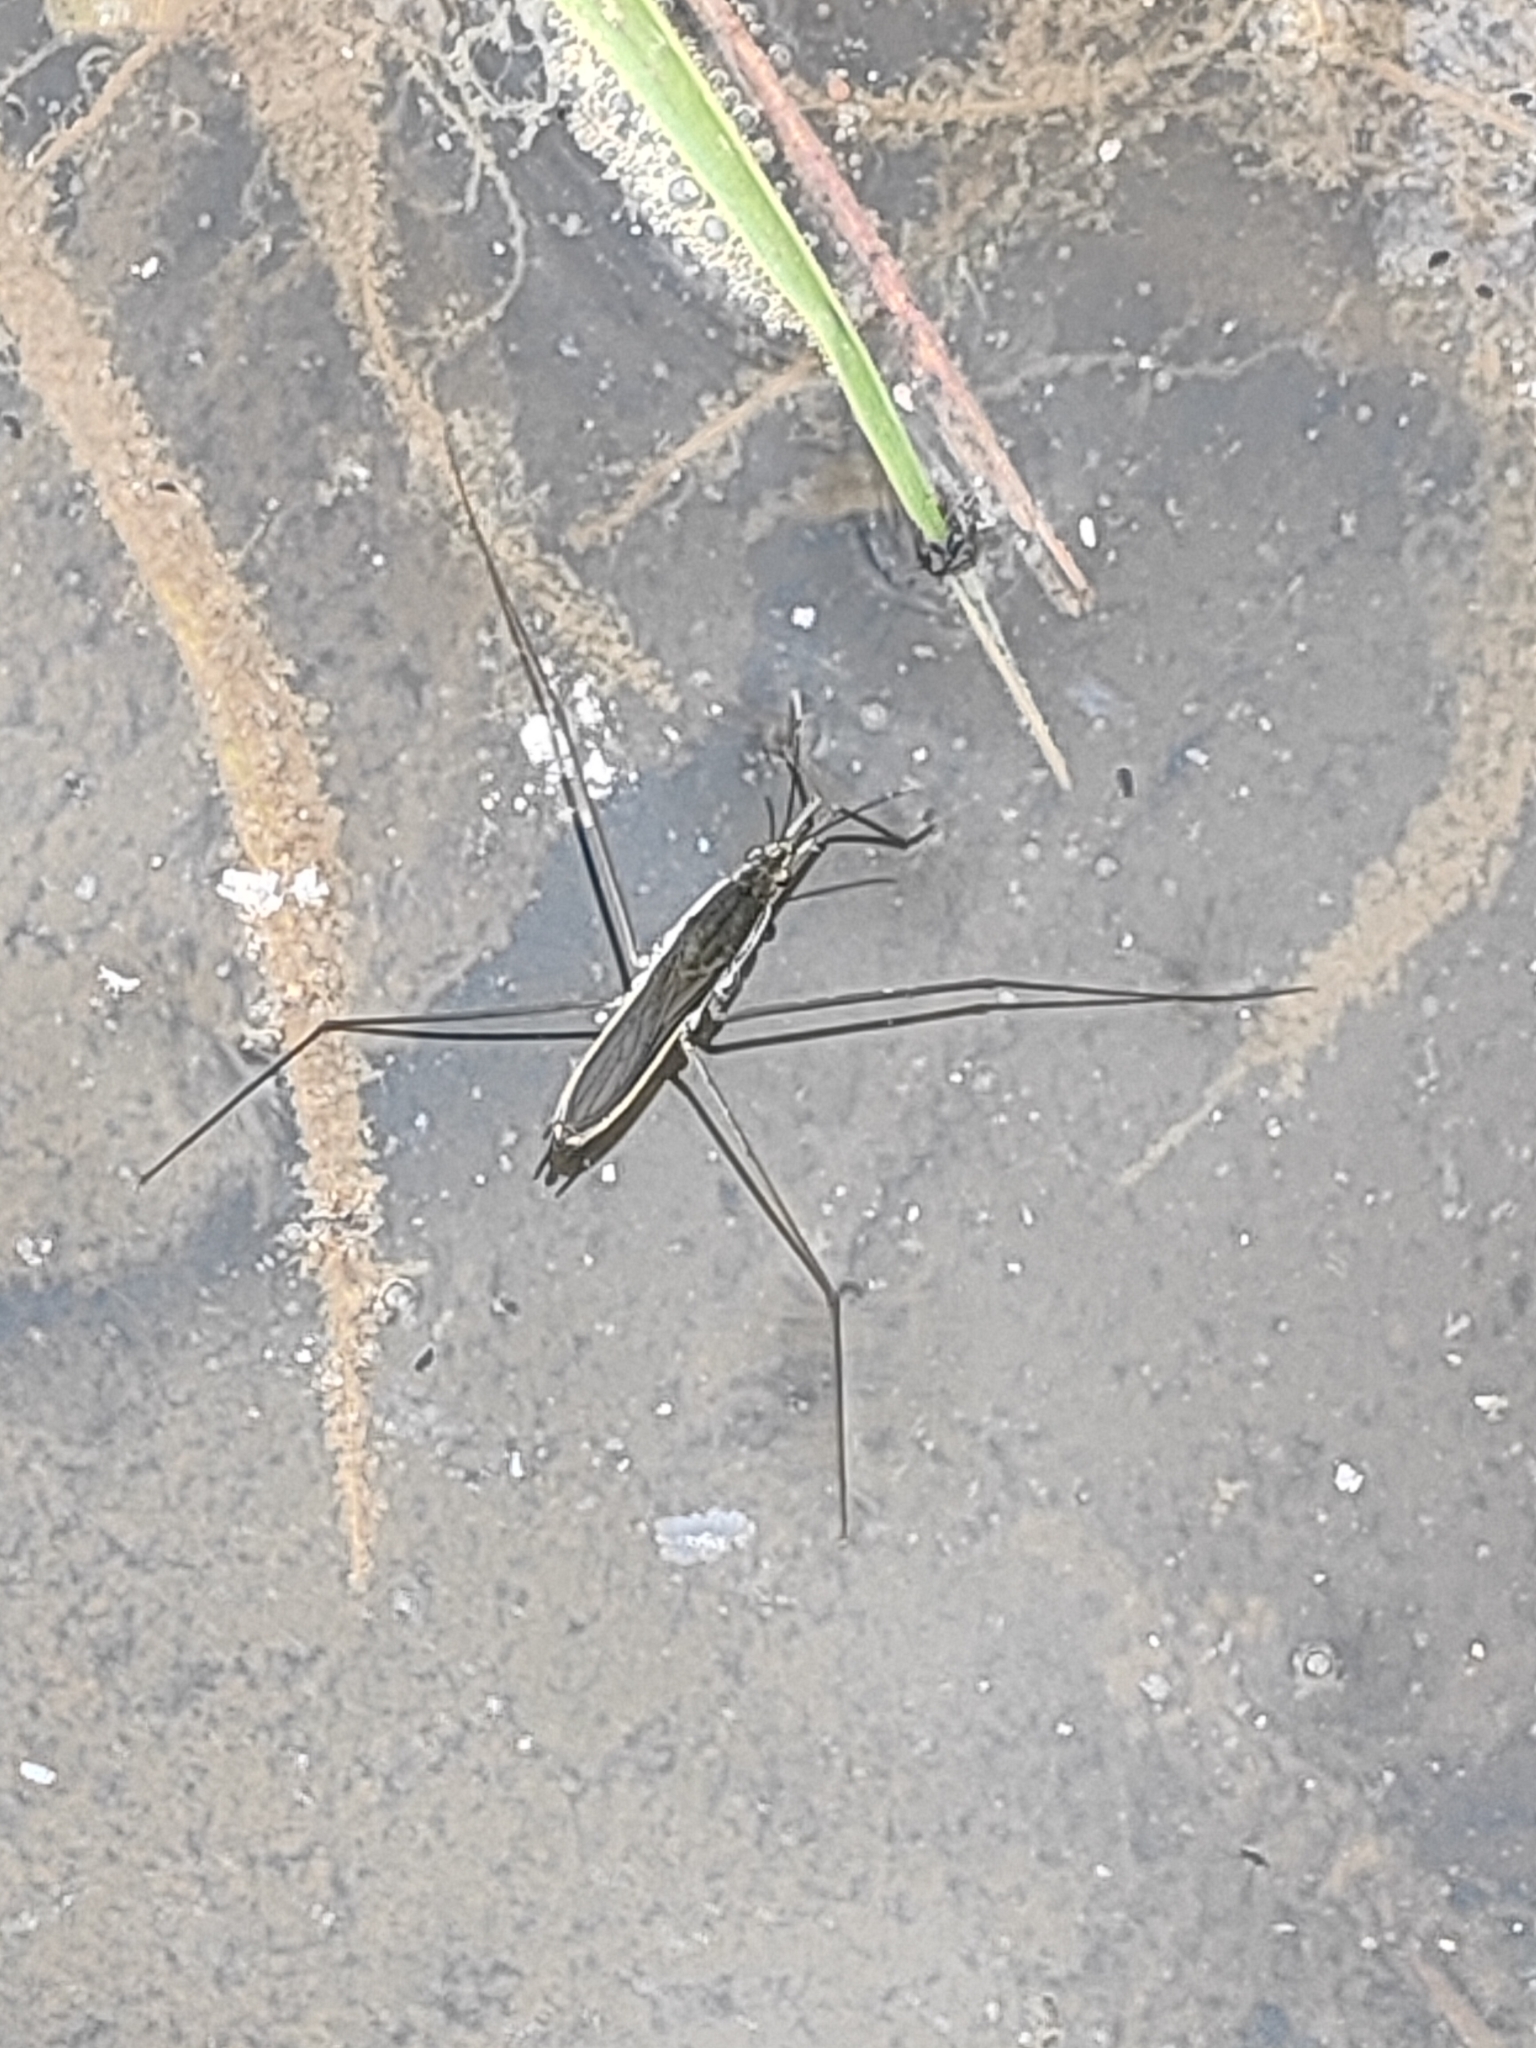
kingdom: Animalia
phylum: Arthropoda
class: Insecta
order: Hemiptera
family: Gerridae
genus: Aquarius
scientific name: Aquarius paludum
